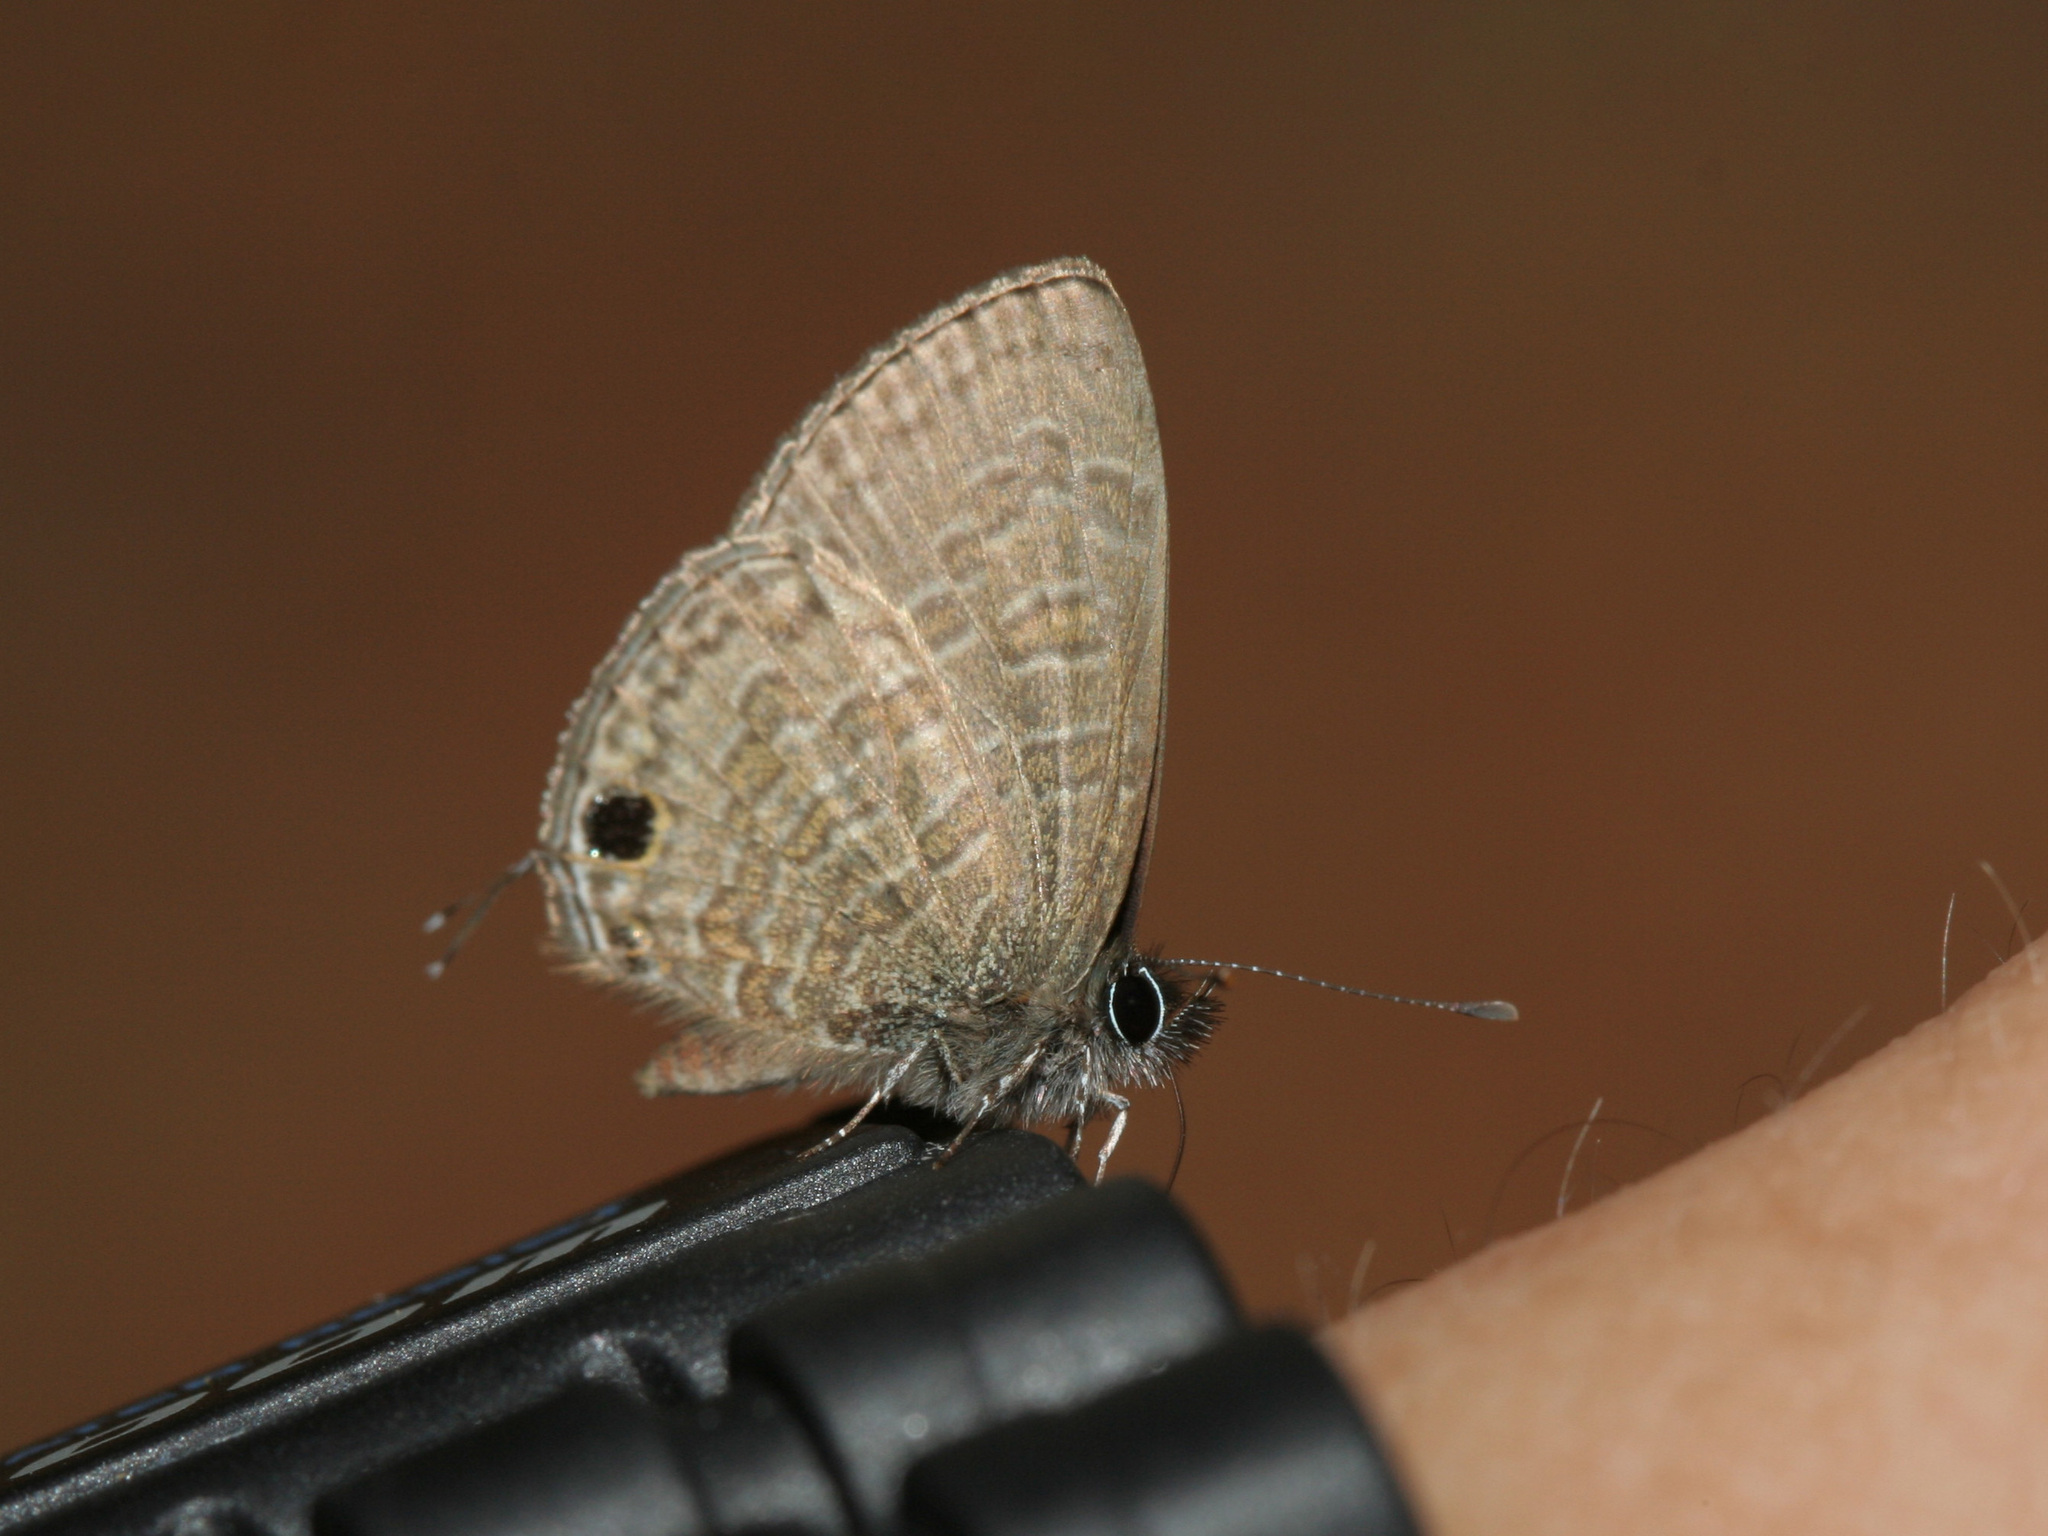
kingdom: Animalia
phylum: Arthropoda
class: Insecta
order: Lepidoptera
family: Lycaenidae
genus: Prosotas
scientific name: Prosotas nora
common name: Common line blue
